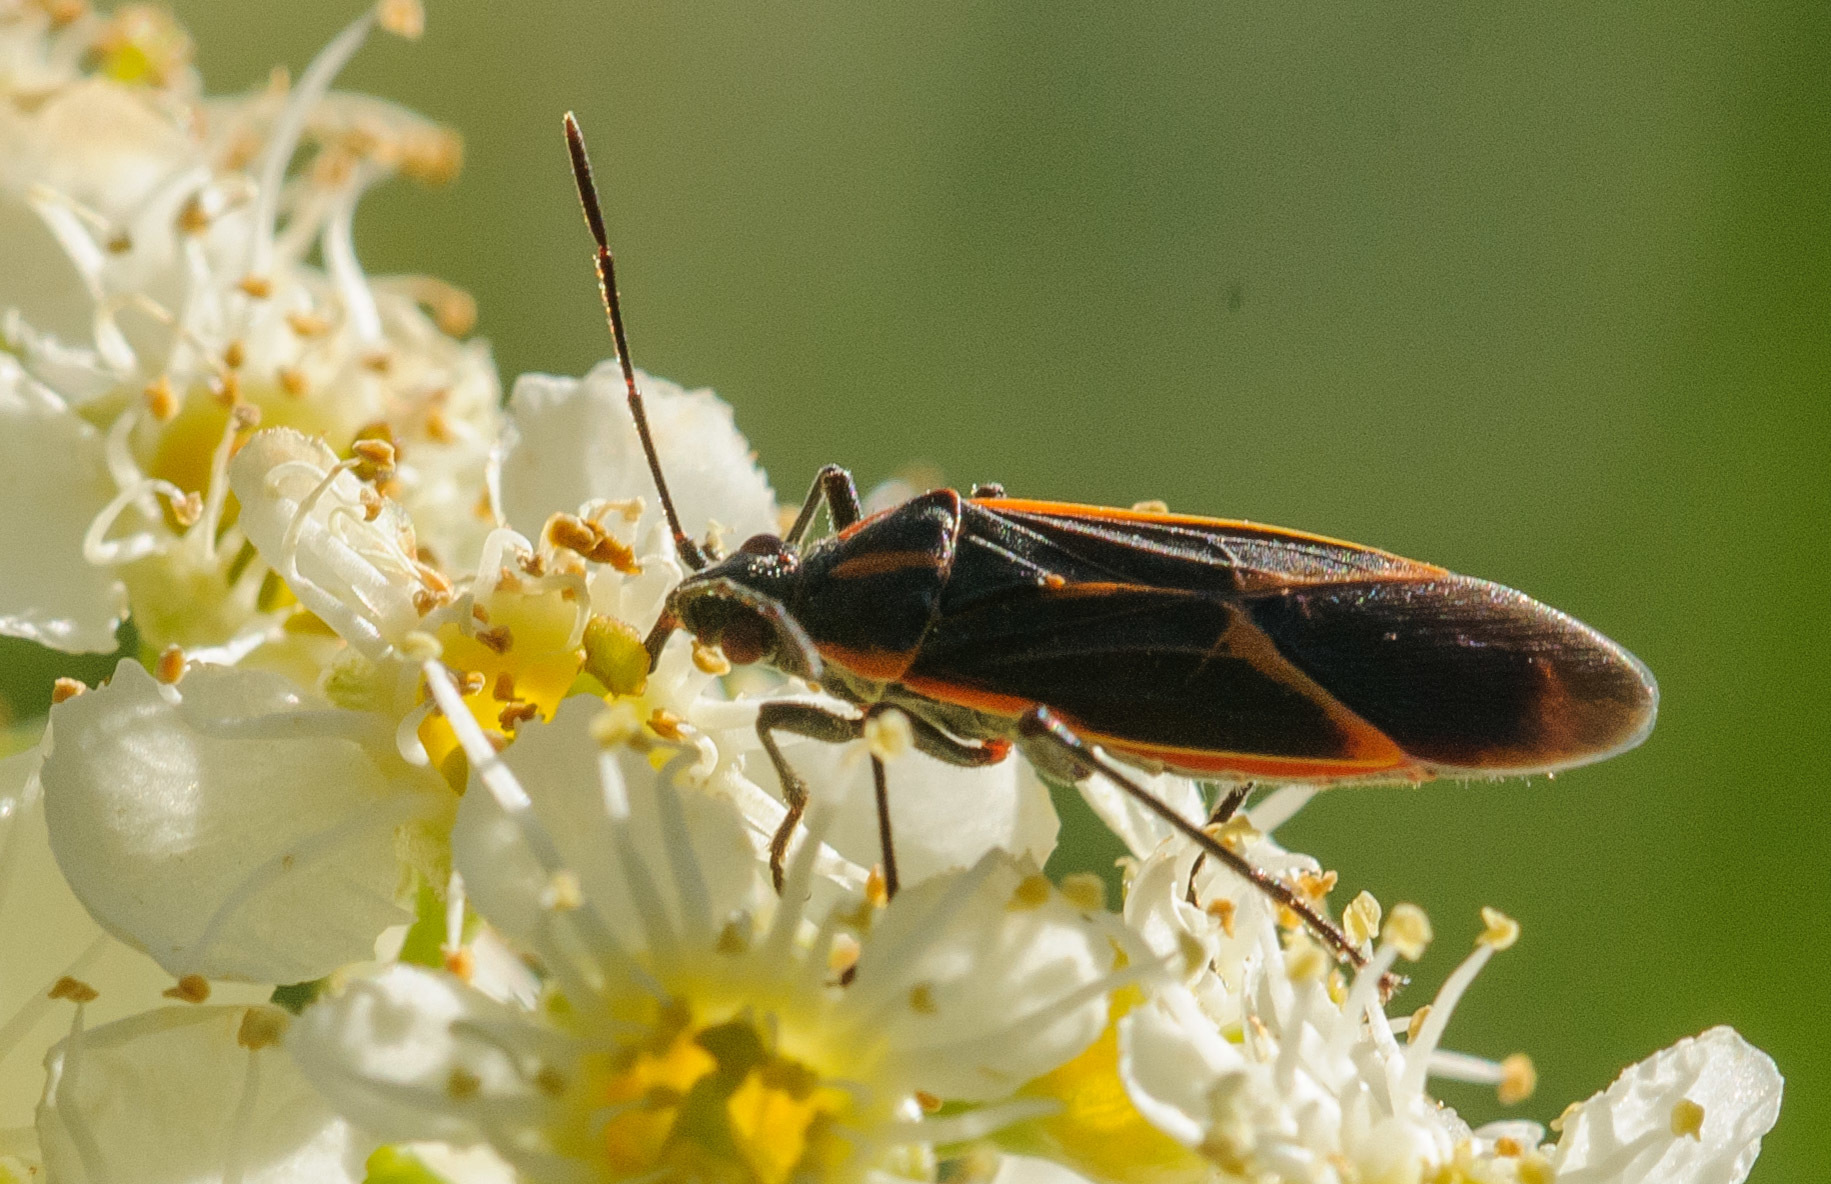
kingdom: Animalia
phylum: Arthropoda
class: Insecta
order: Hemiptera
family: Rhopalidae
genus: Boisea
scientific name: Boisea trivittata
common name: Boxelder bug
